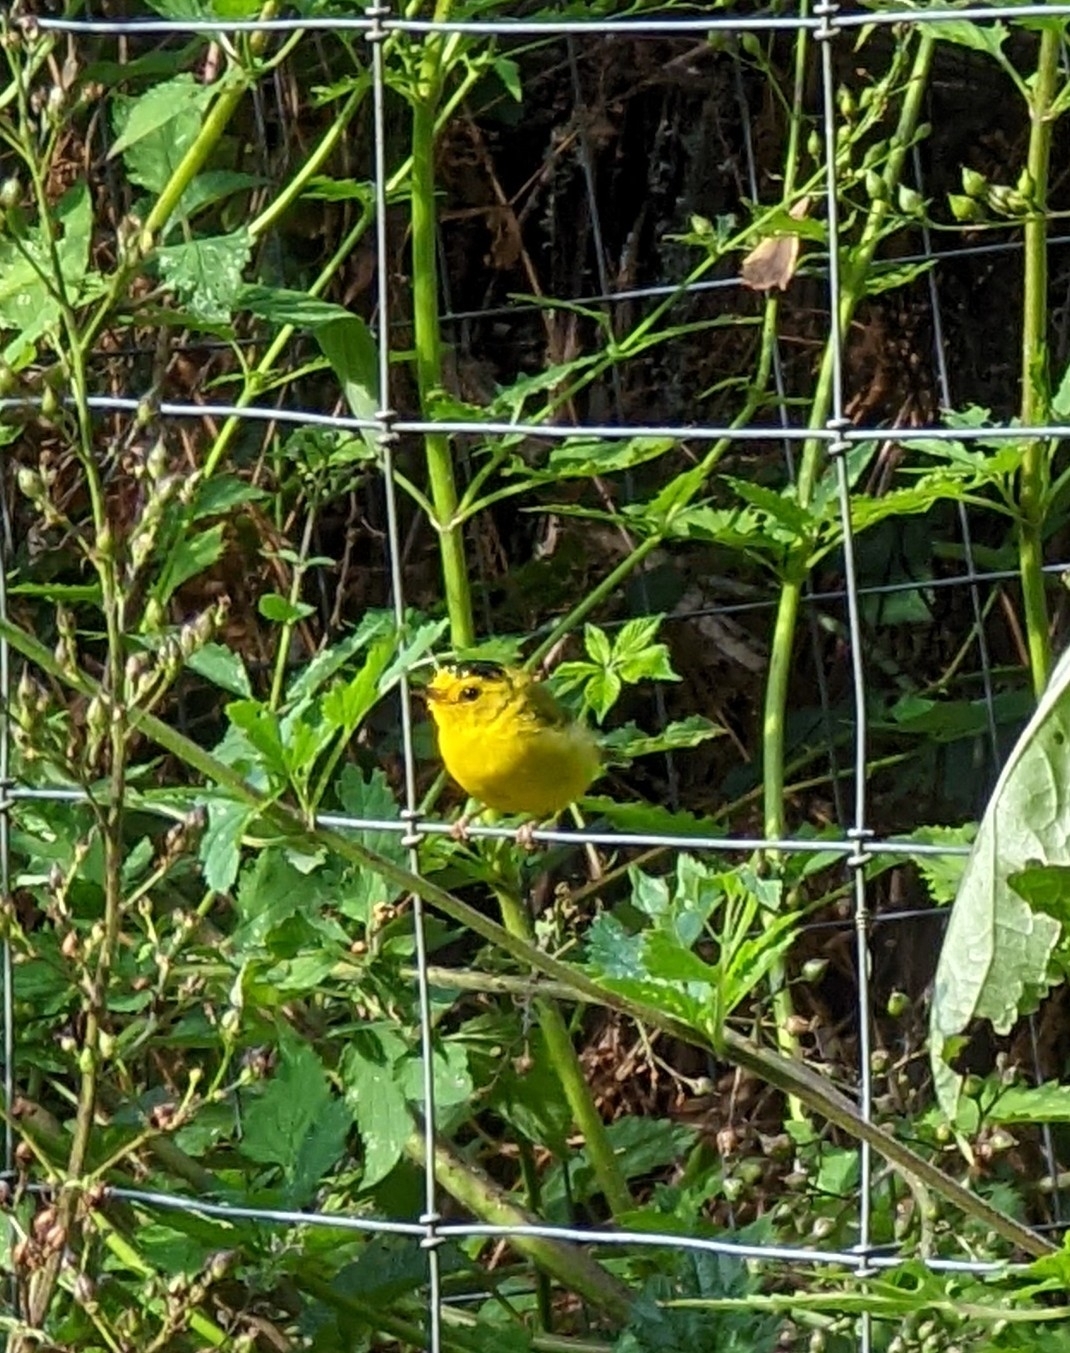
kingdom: Animalia
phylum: Chordata
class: Aves
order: Passeriformes
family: Parulidae
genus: Cardellina
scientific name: Cardellina pusilla
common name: Wilson's warbler
